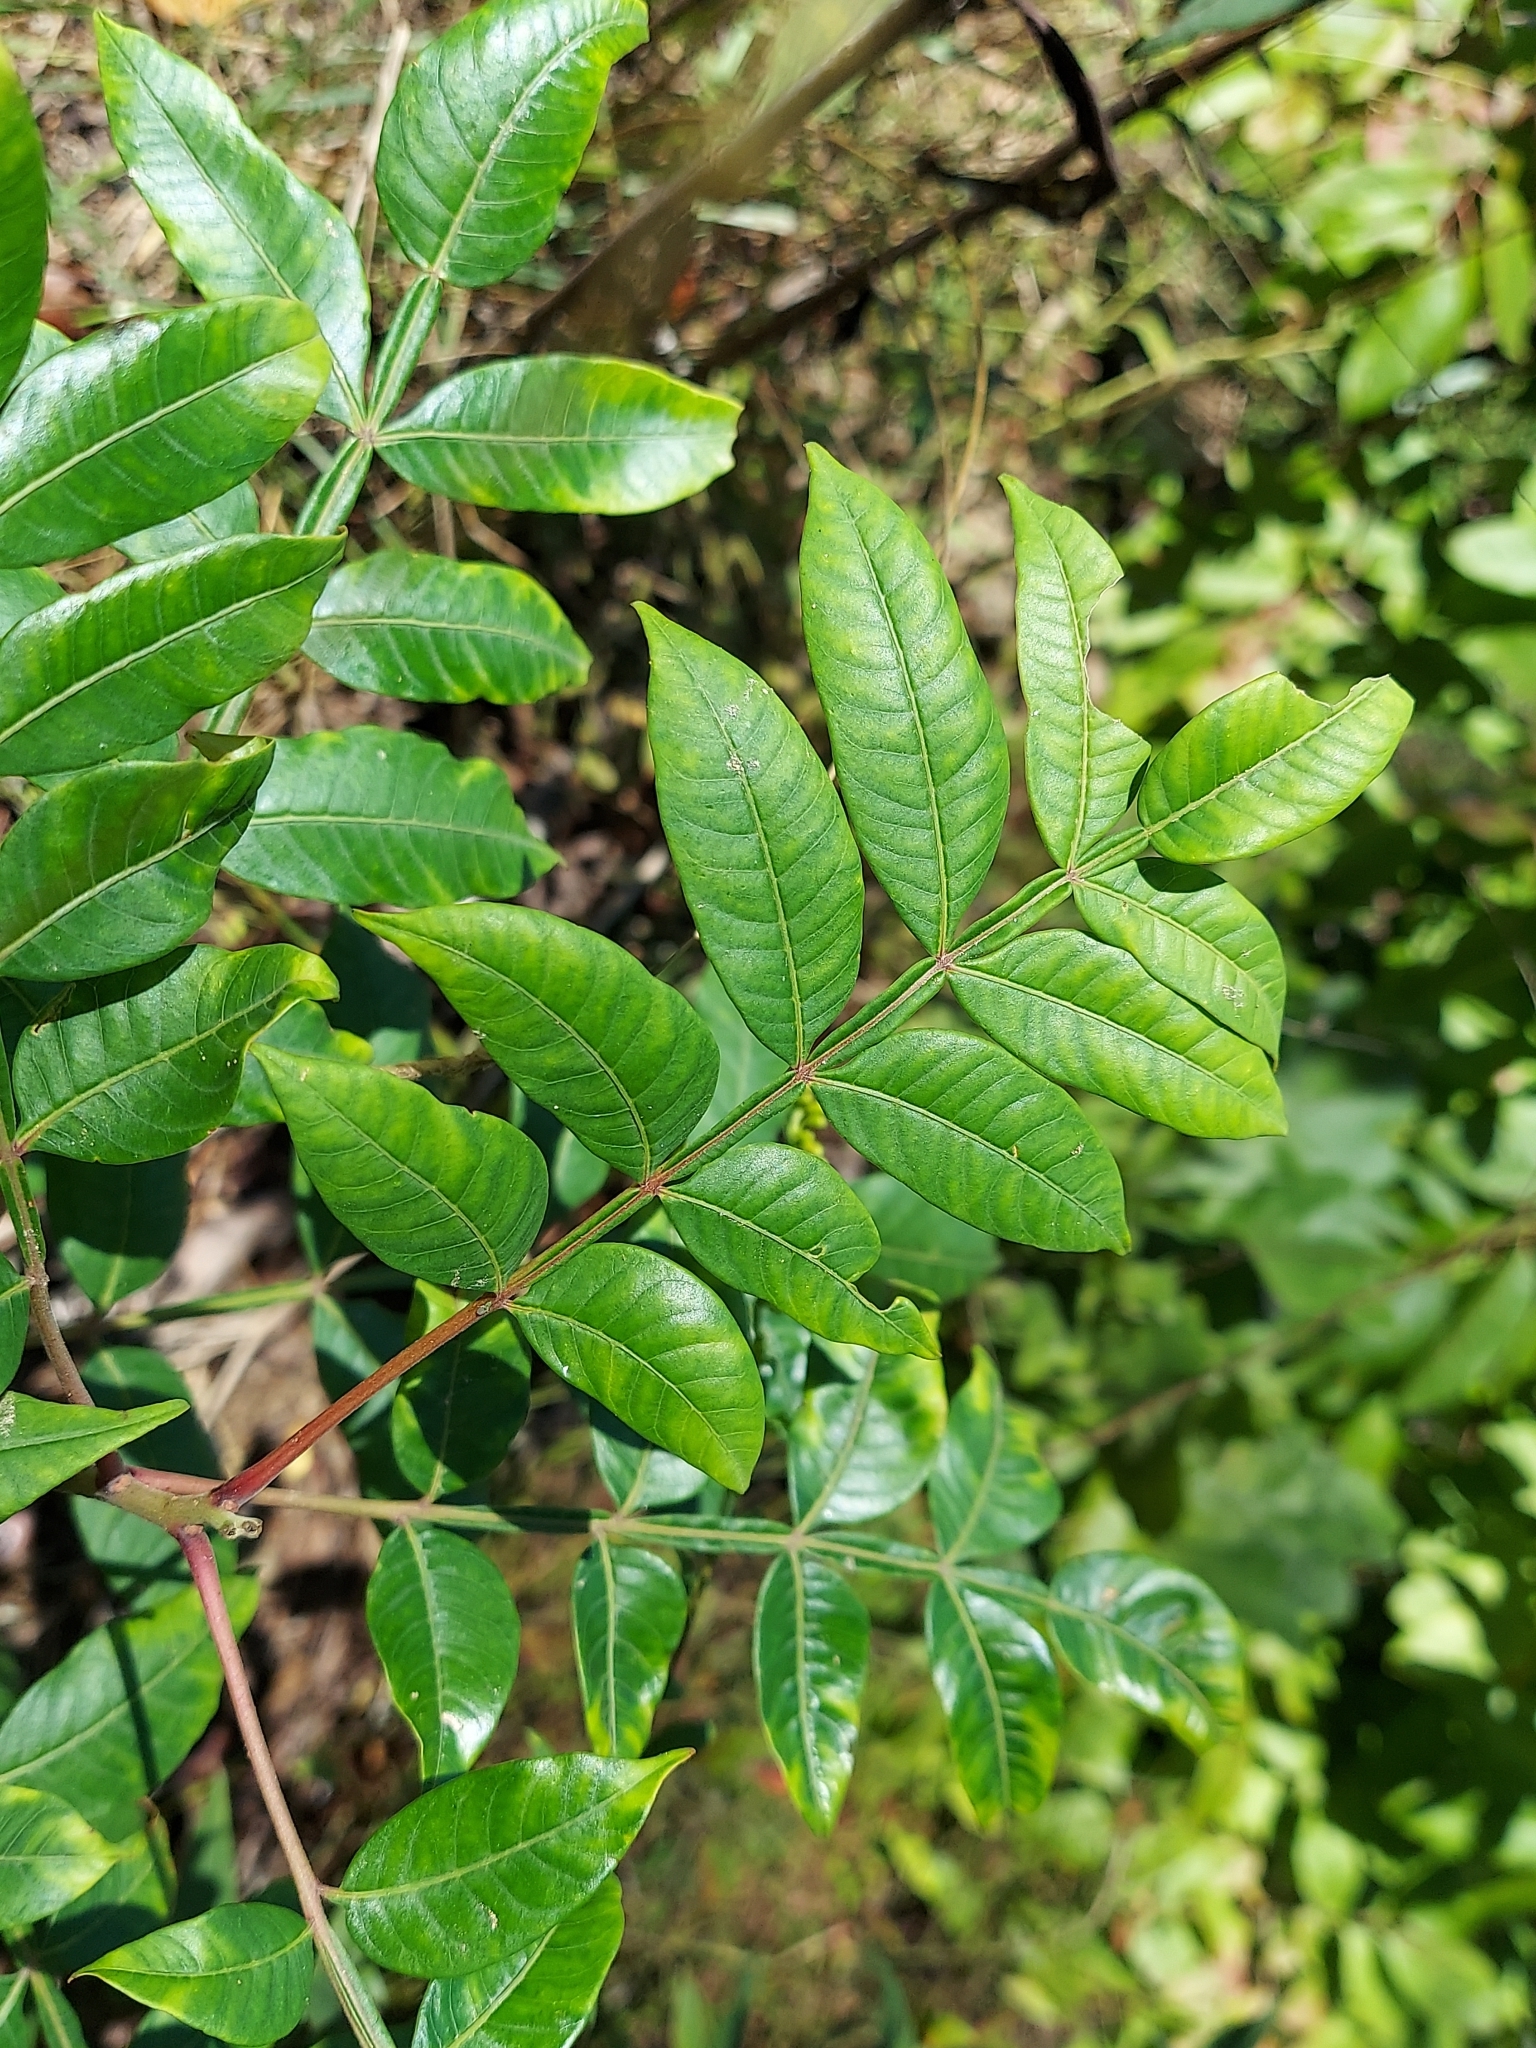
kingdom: Plantae
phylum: Tracheophyta
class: Magnoliopsida
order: Sapindales
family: Anacardiaceae
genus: Rhus
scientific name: Rhus copallina
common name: Shining sumac
